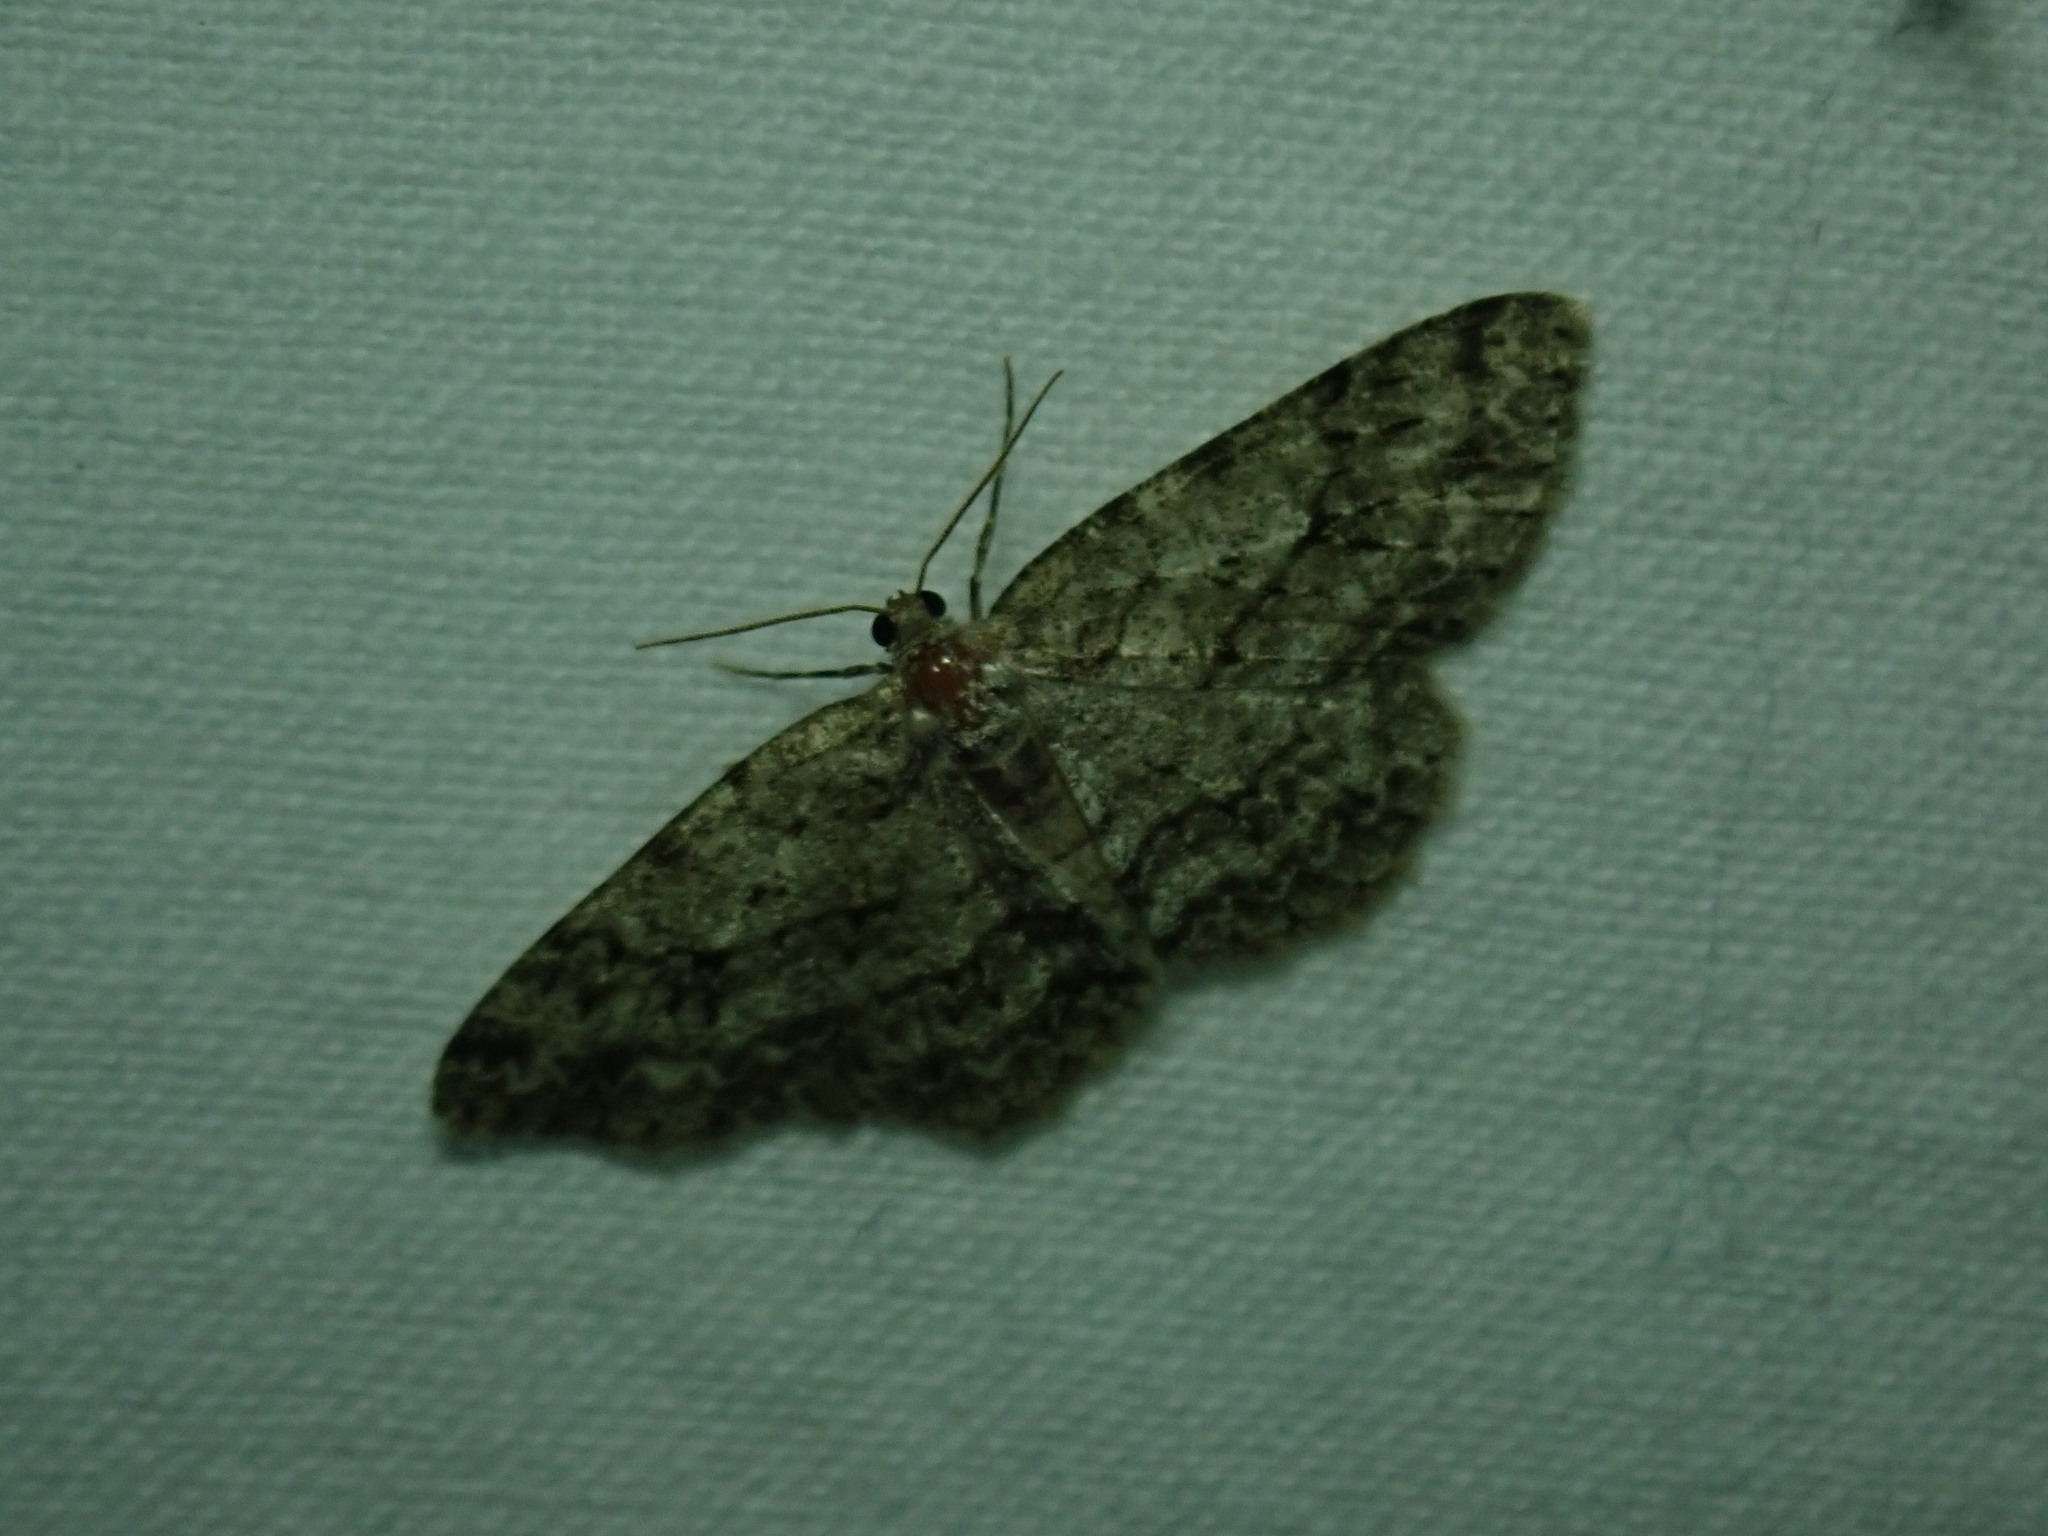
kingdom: Animalia
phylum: Arthropoda
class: Insecta
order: Lepidoptera
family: Geometridae
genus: Ectropis
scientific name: Ectropis crepuscularia
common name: Engrailed
